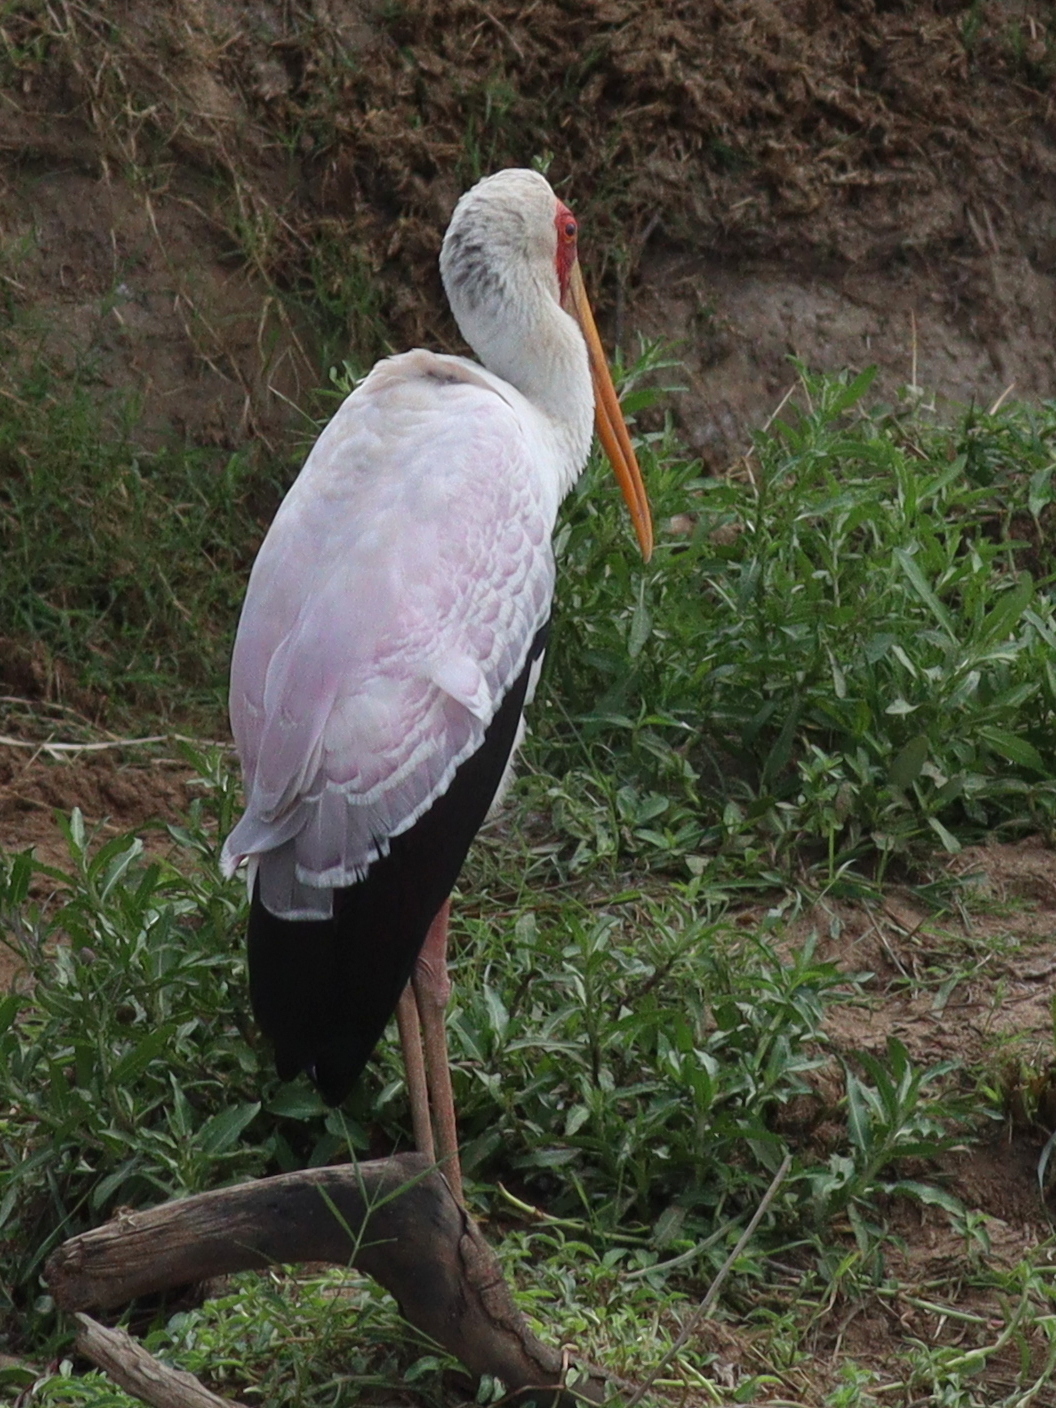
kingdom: Animalia
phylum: Chordata
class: Aves
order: Ciconiiformes
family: Ciconiidae
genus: Mycteria
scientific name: Mycteria ibis
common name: Yellow-billed stork
